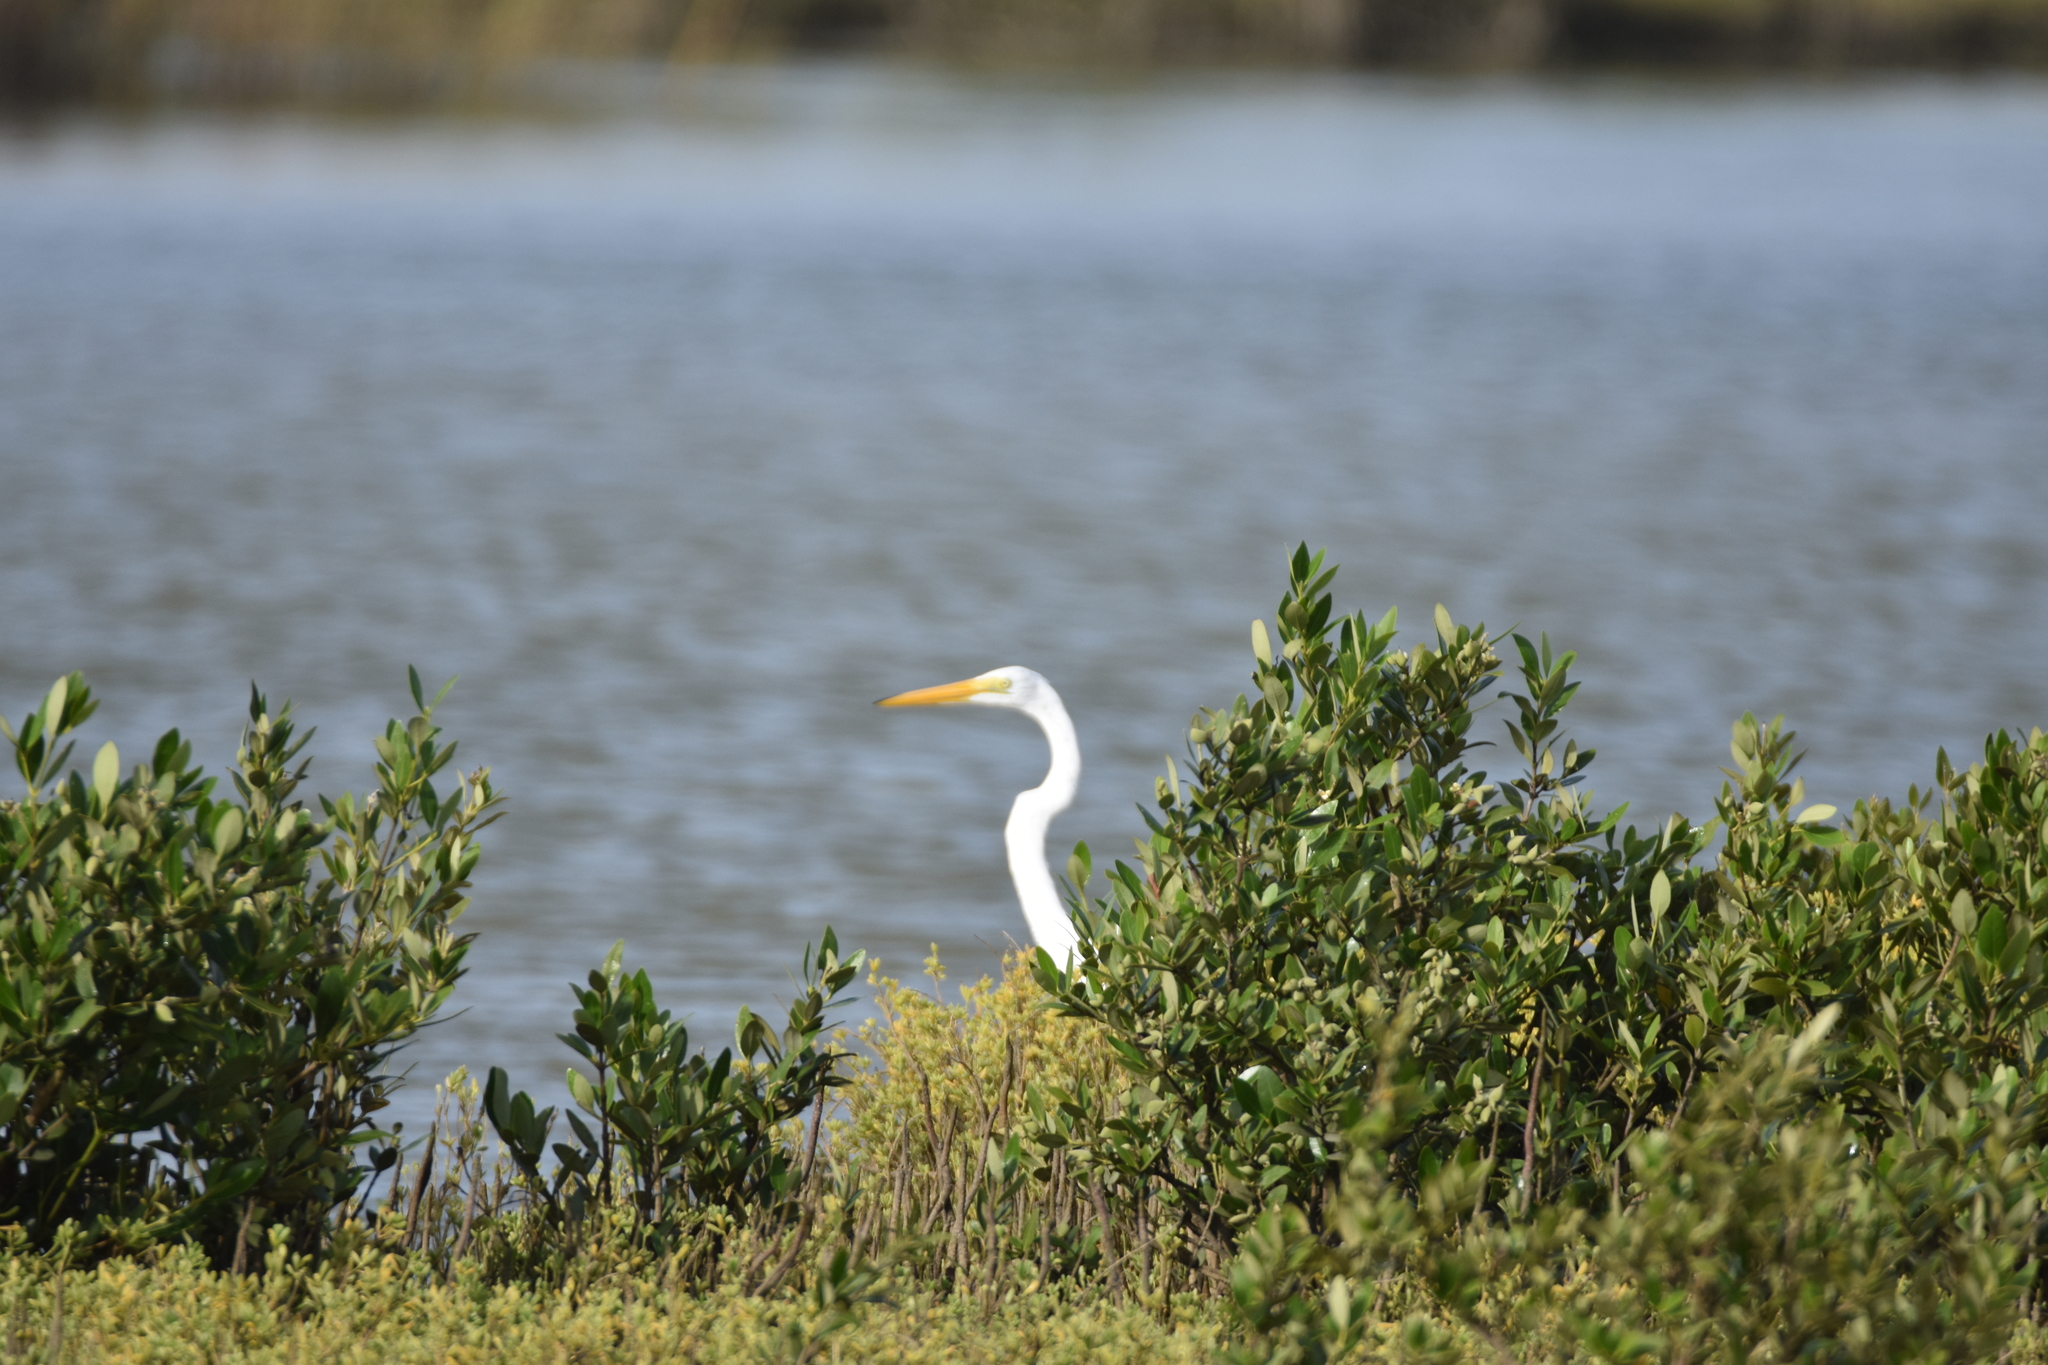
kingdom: Animalia
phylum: Chordata
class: Aves
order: Pelecaniformes
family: Ardeidae
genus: Ardea
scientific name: Ardea alba
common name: Great egret
